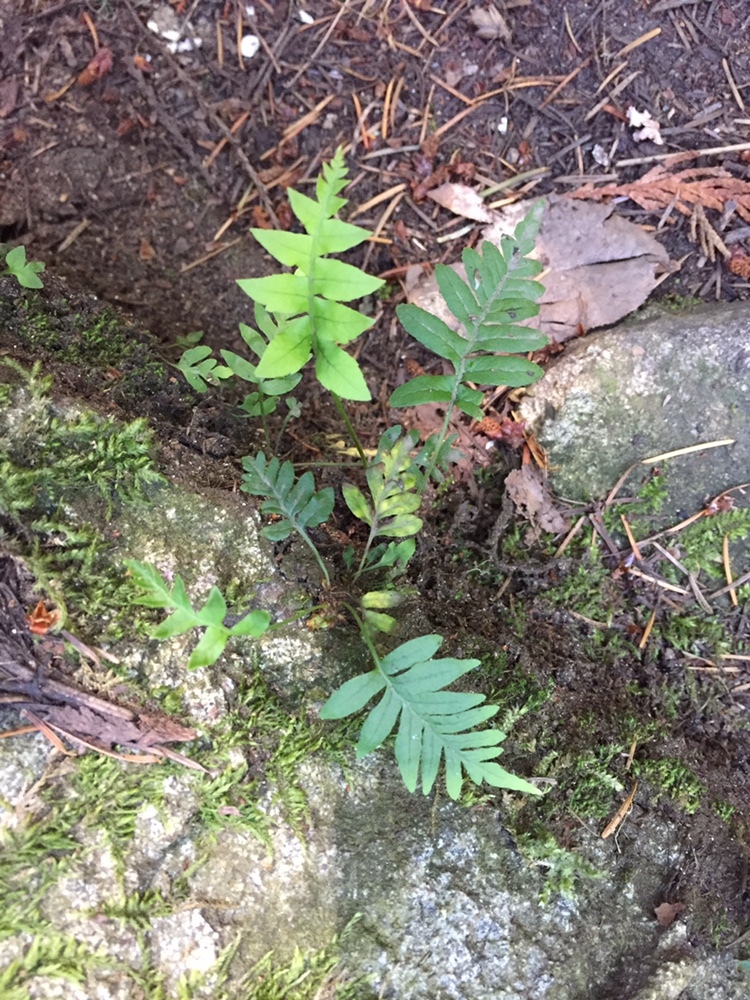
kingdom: Plantae
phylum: Tracheophyta
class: Polypodiopsida
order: Polypodiales
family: Polypodiaceae
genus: Polypodium
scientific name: Polypodium glycyrrhiza
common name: Licorice fern
